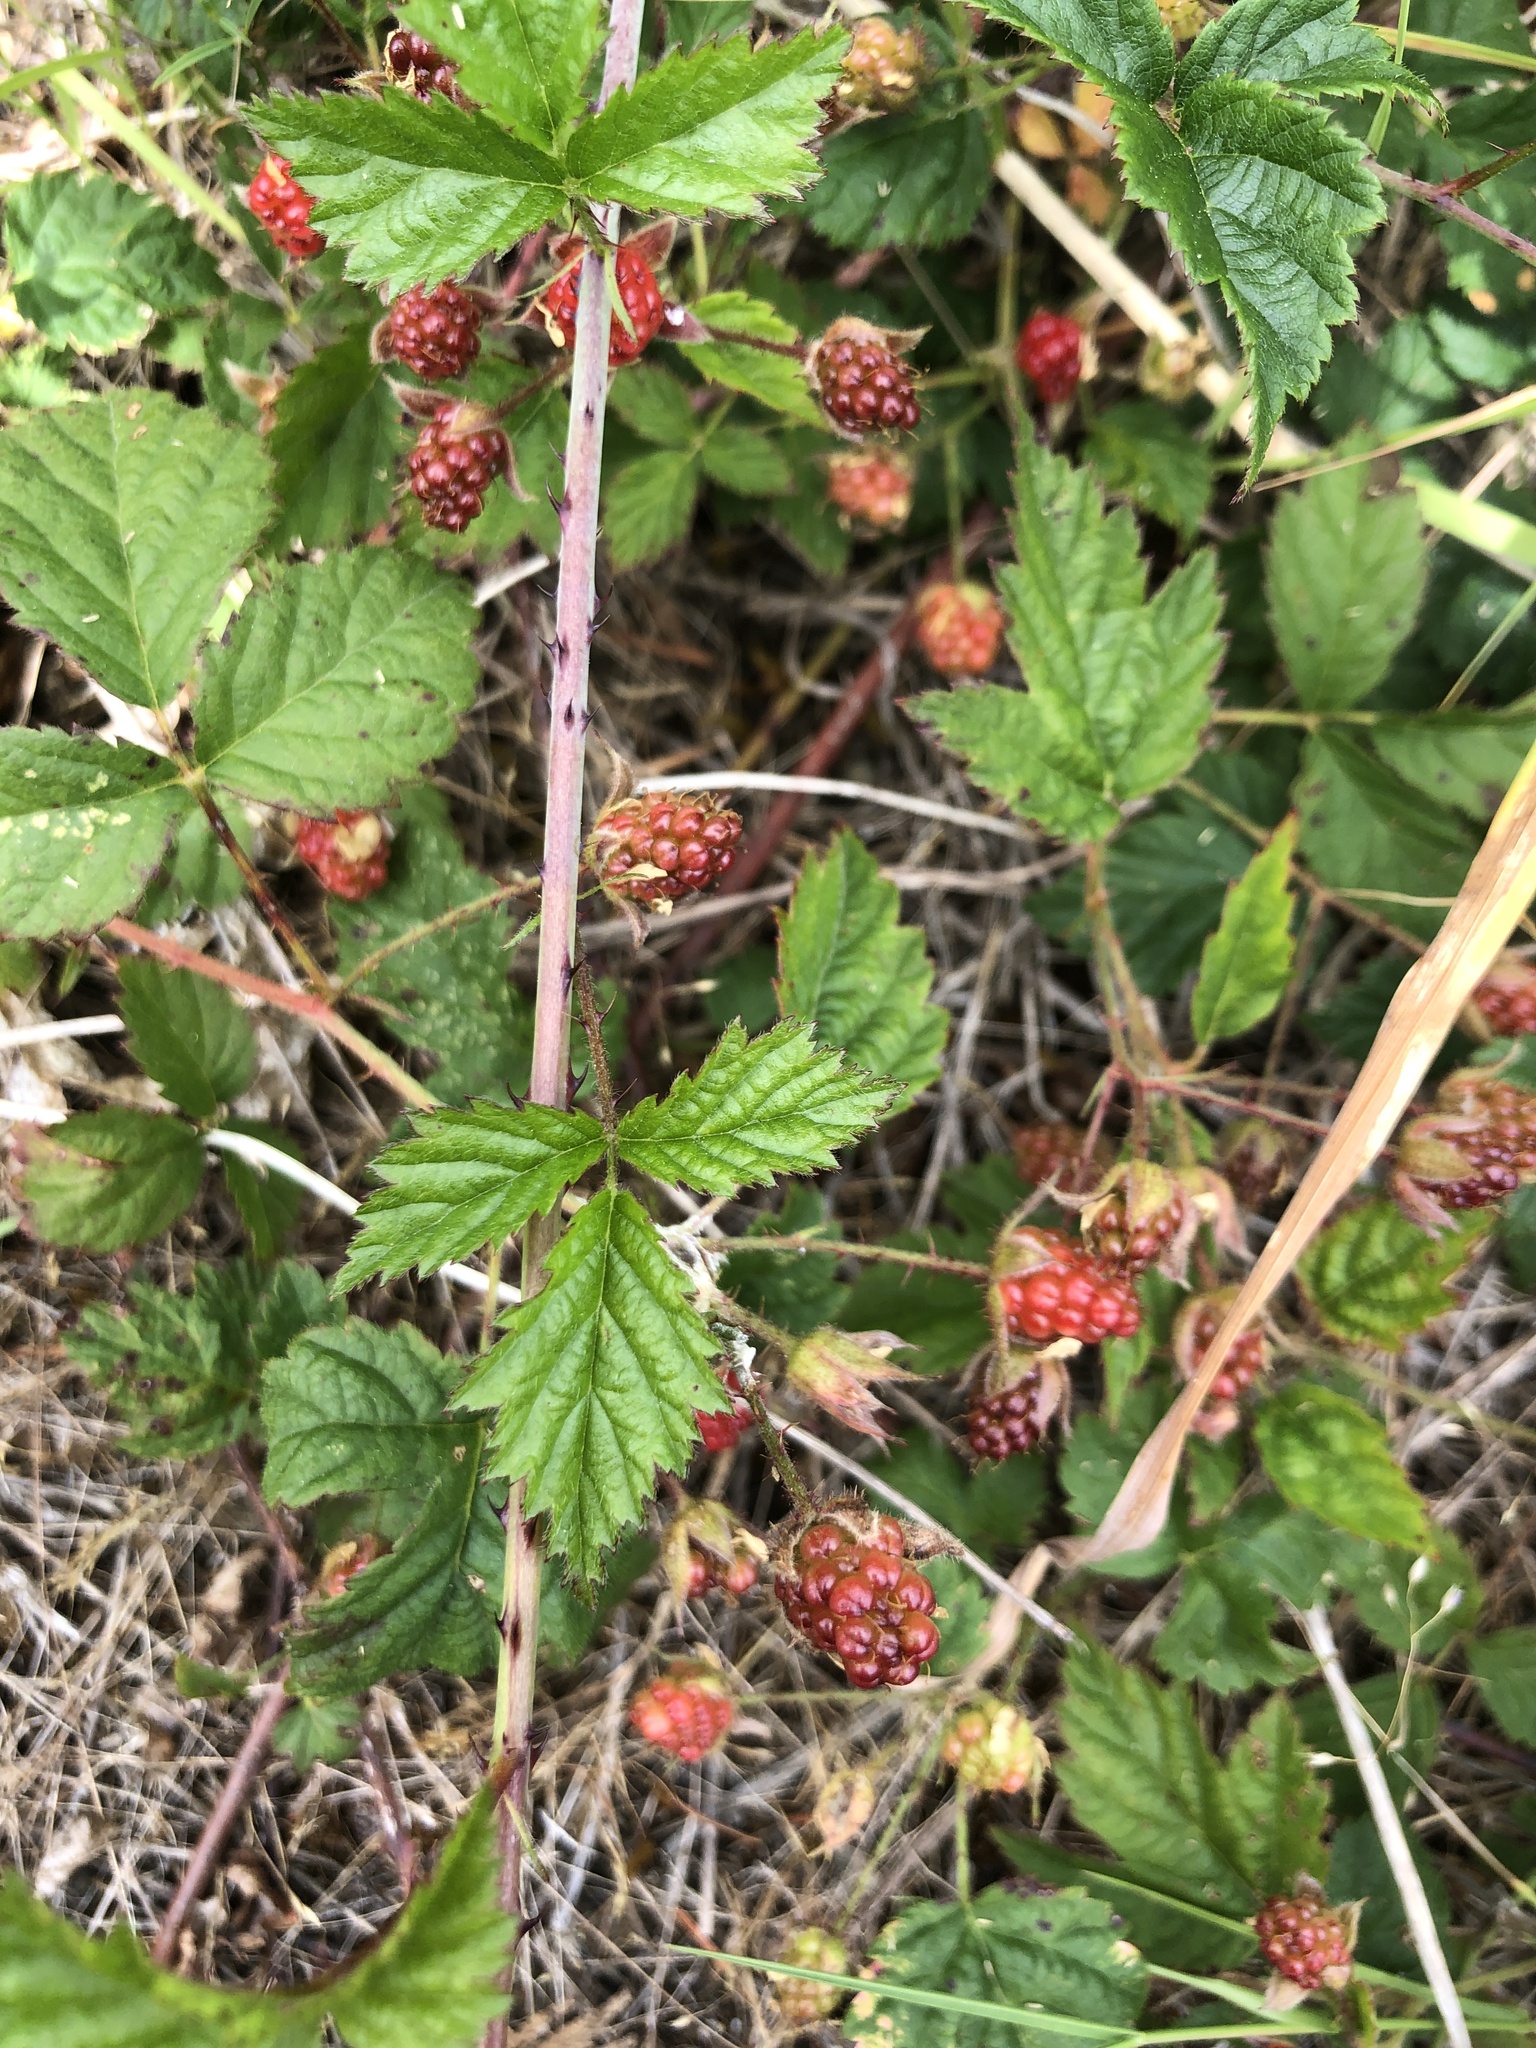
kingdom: Plantae
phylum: Tracheophyta
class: Magnoliopsida
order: Rosales
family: Rosaceae
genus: Rubus
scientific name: Rubus ursinus
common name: Pacific blackberry
